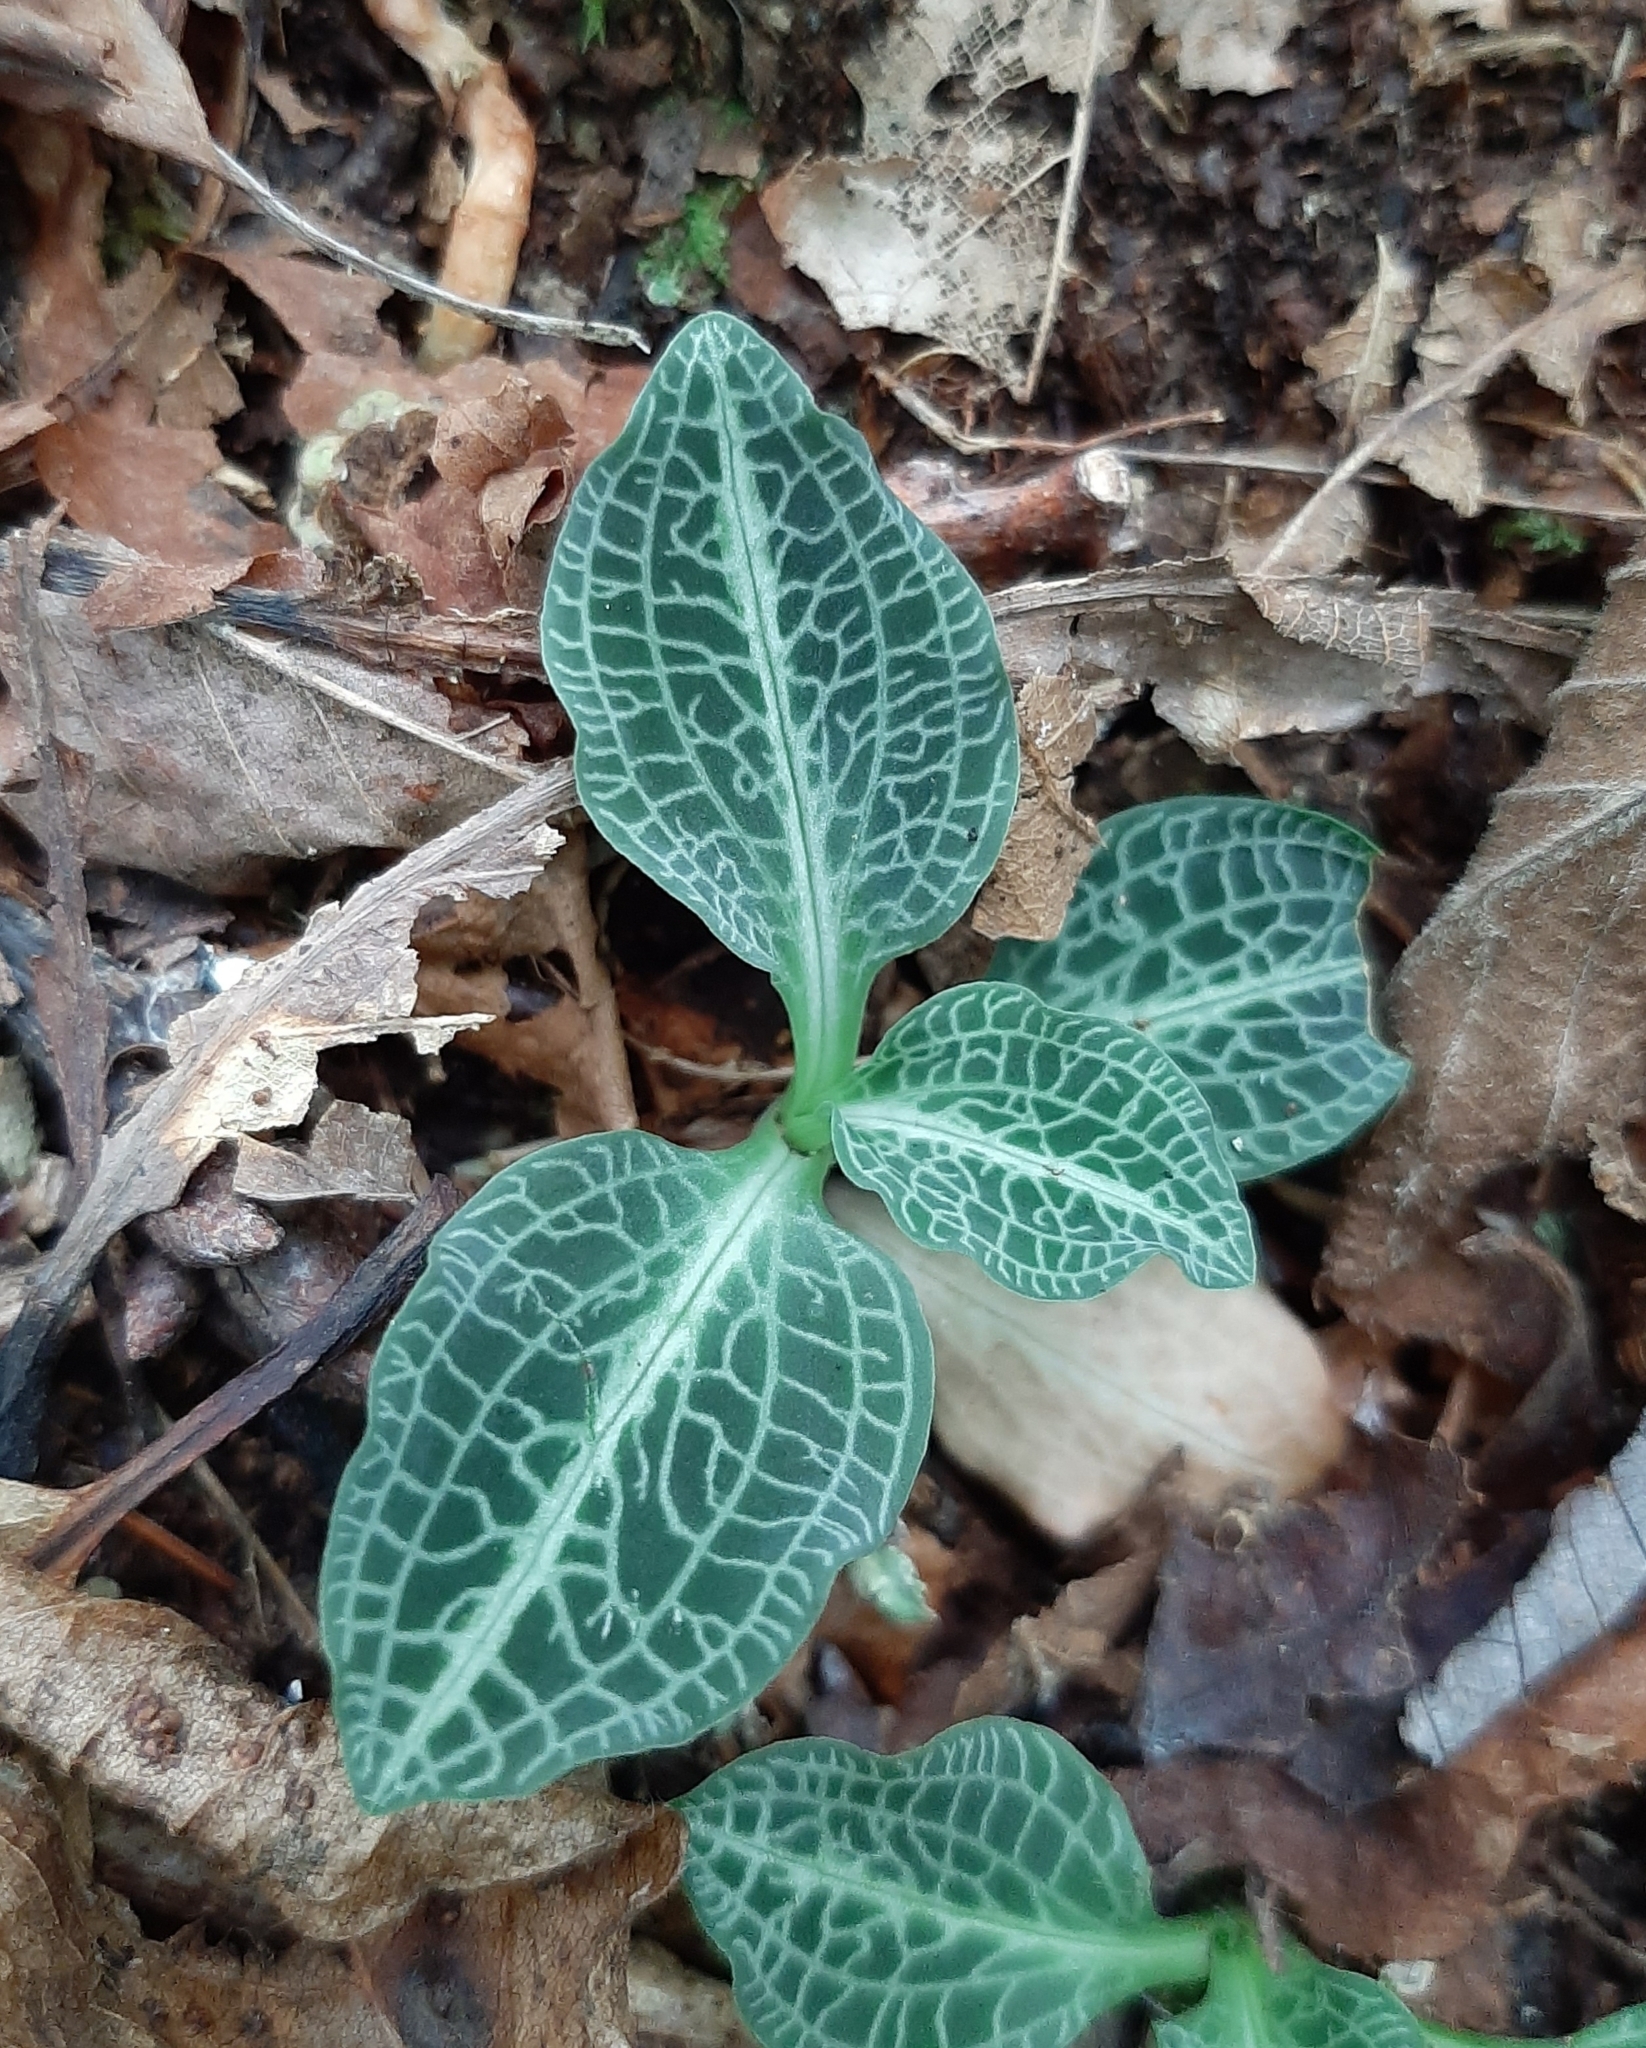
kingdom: Plantae
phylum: Tracheophyta
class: Liliopsida
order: Asparagales
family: Orchidaceae
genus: Goodyera
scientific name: Goodyera pubescens
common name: Downy rattlesnake-plantain
